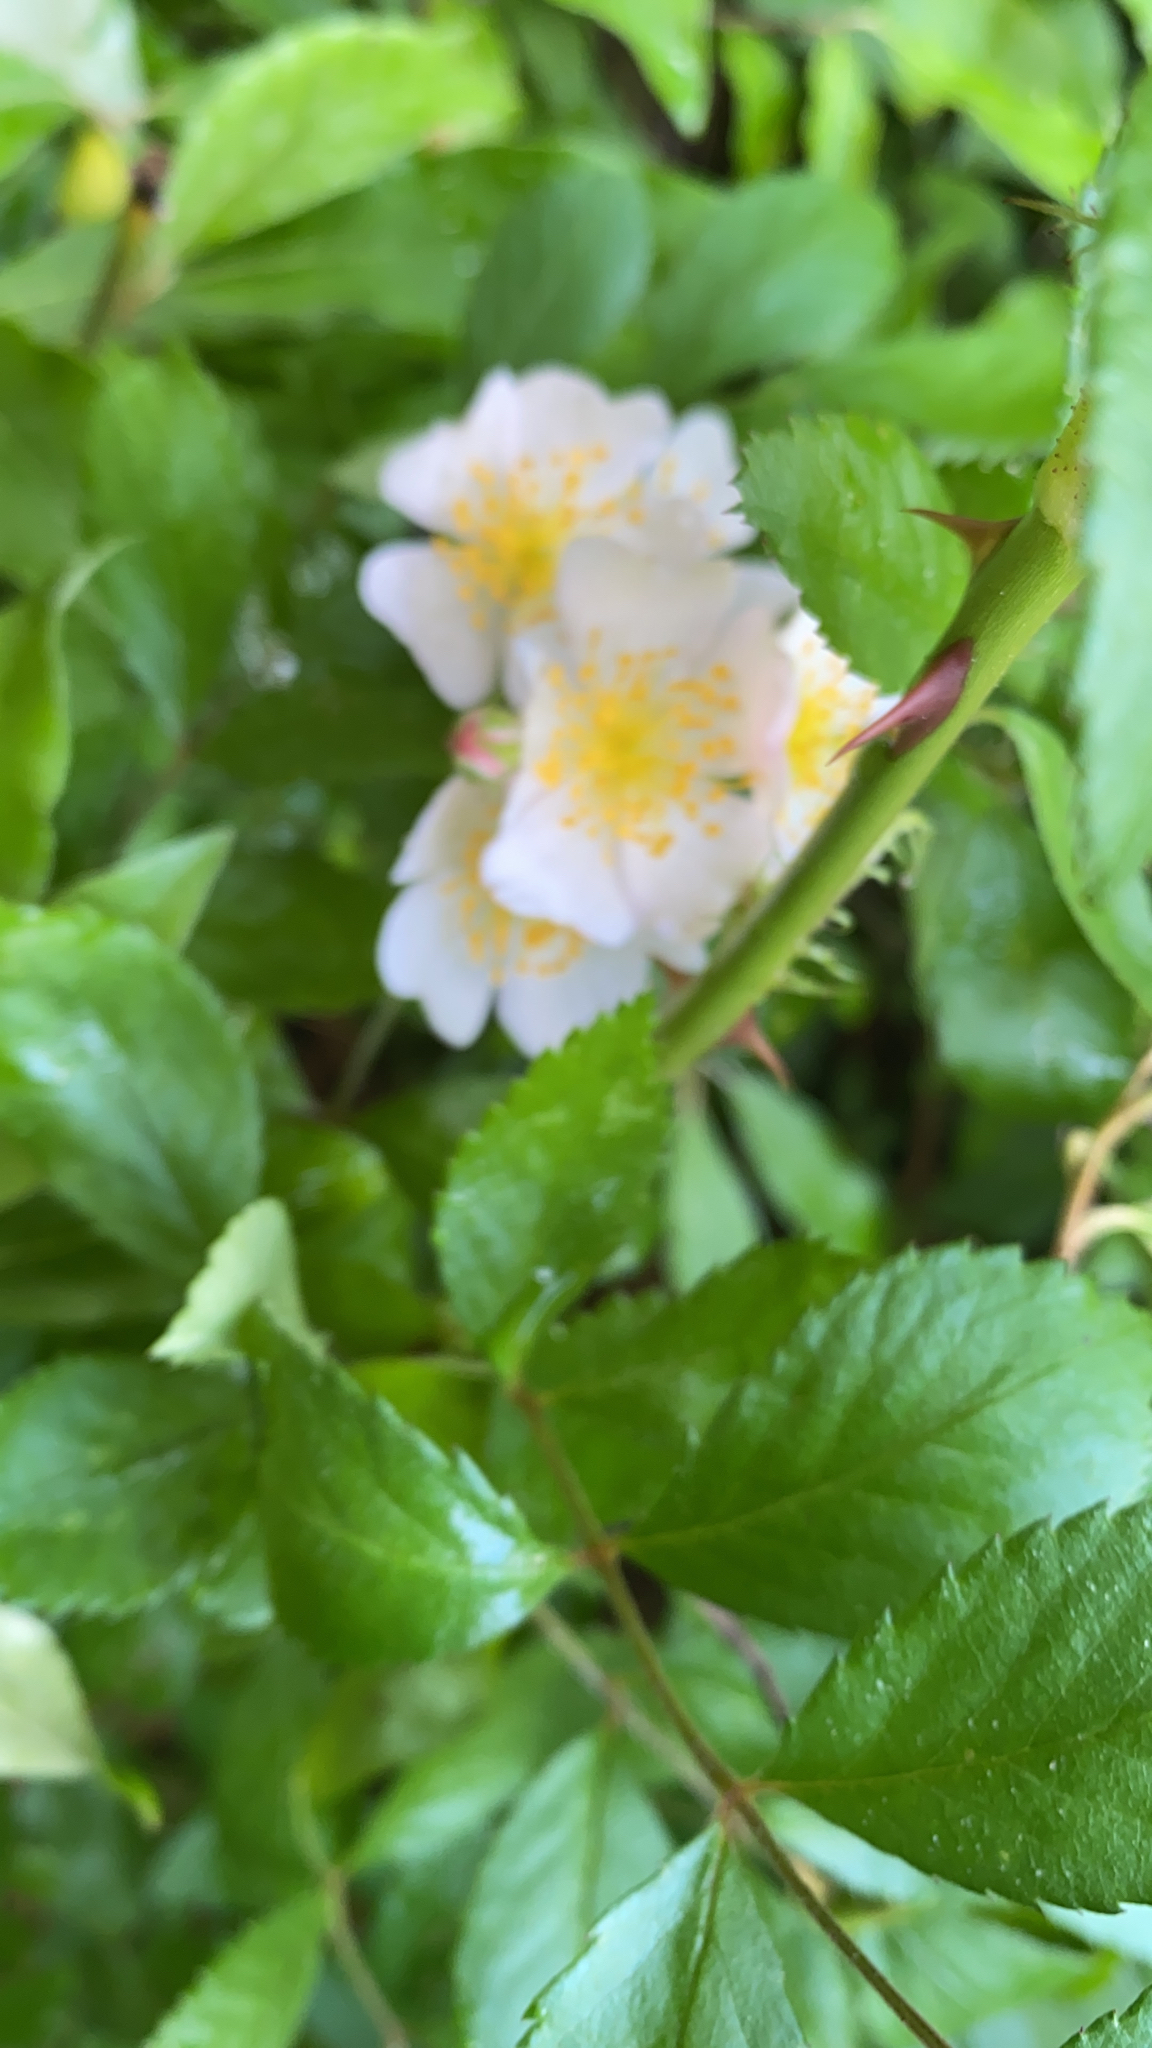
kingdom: Plantae
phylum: Tracheophyta
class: Magnoliopsida
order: Rosales
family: Rosaceae
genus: Rosa
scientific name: Rosa multiflora
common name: Multiflora rose
